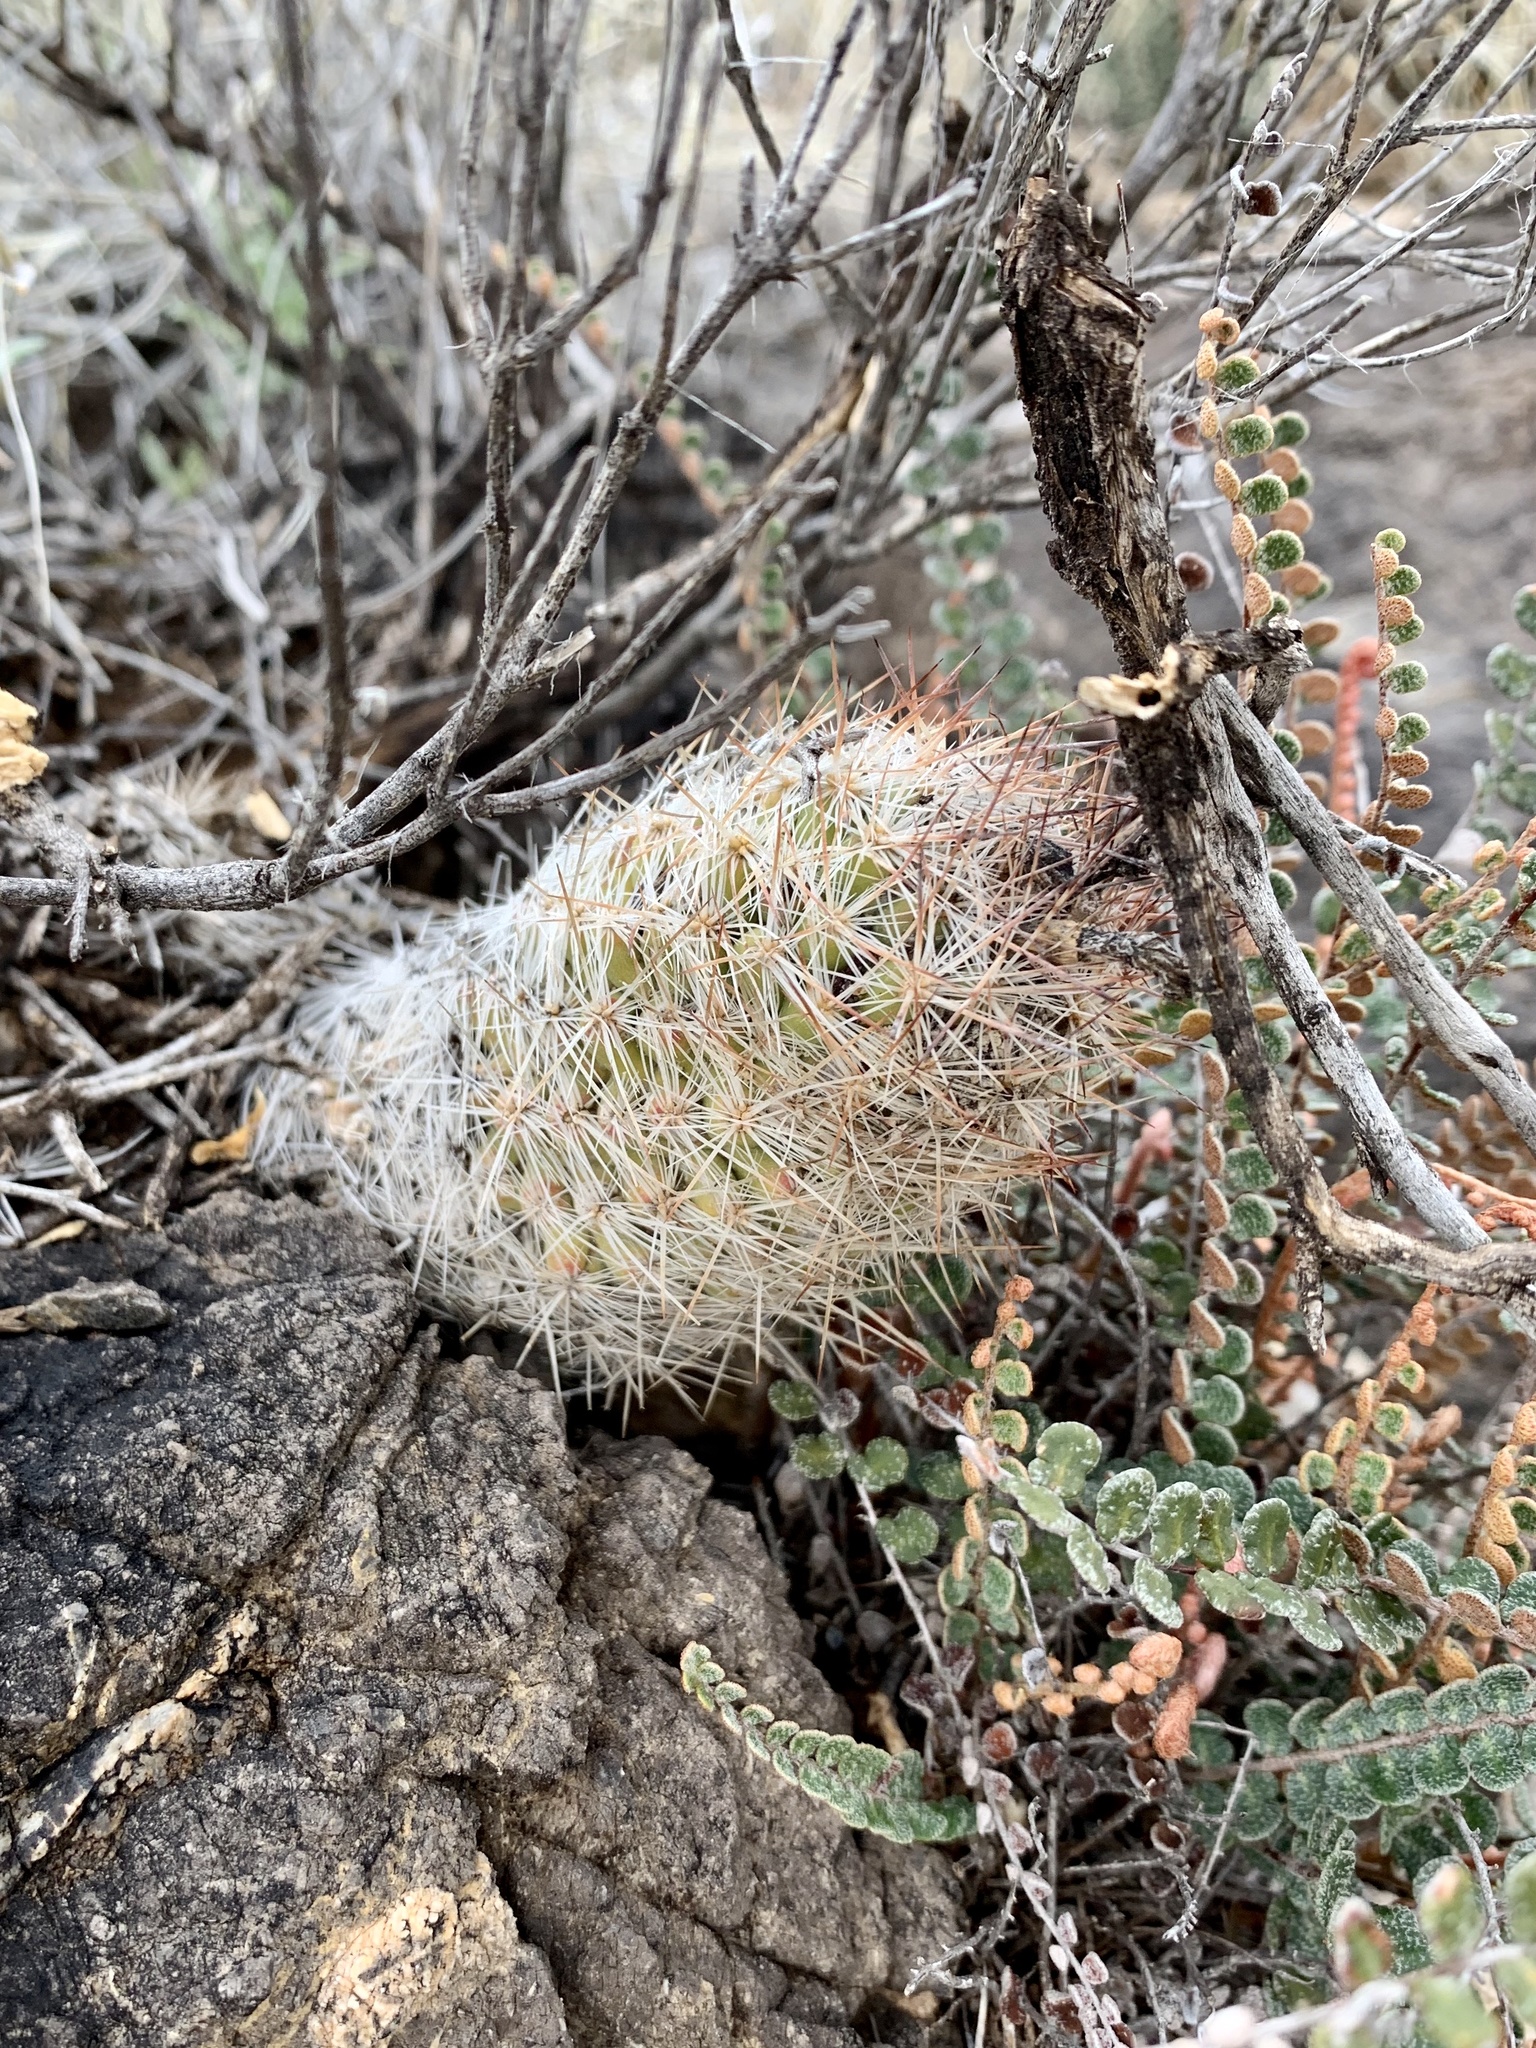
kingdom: Plantae
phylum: Tracheophyta
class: Magnoliopsida
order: Caryophyllales
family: Cactaceae
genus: Pelecyphora
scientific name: Pelecyphora tuberculosa
